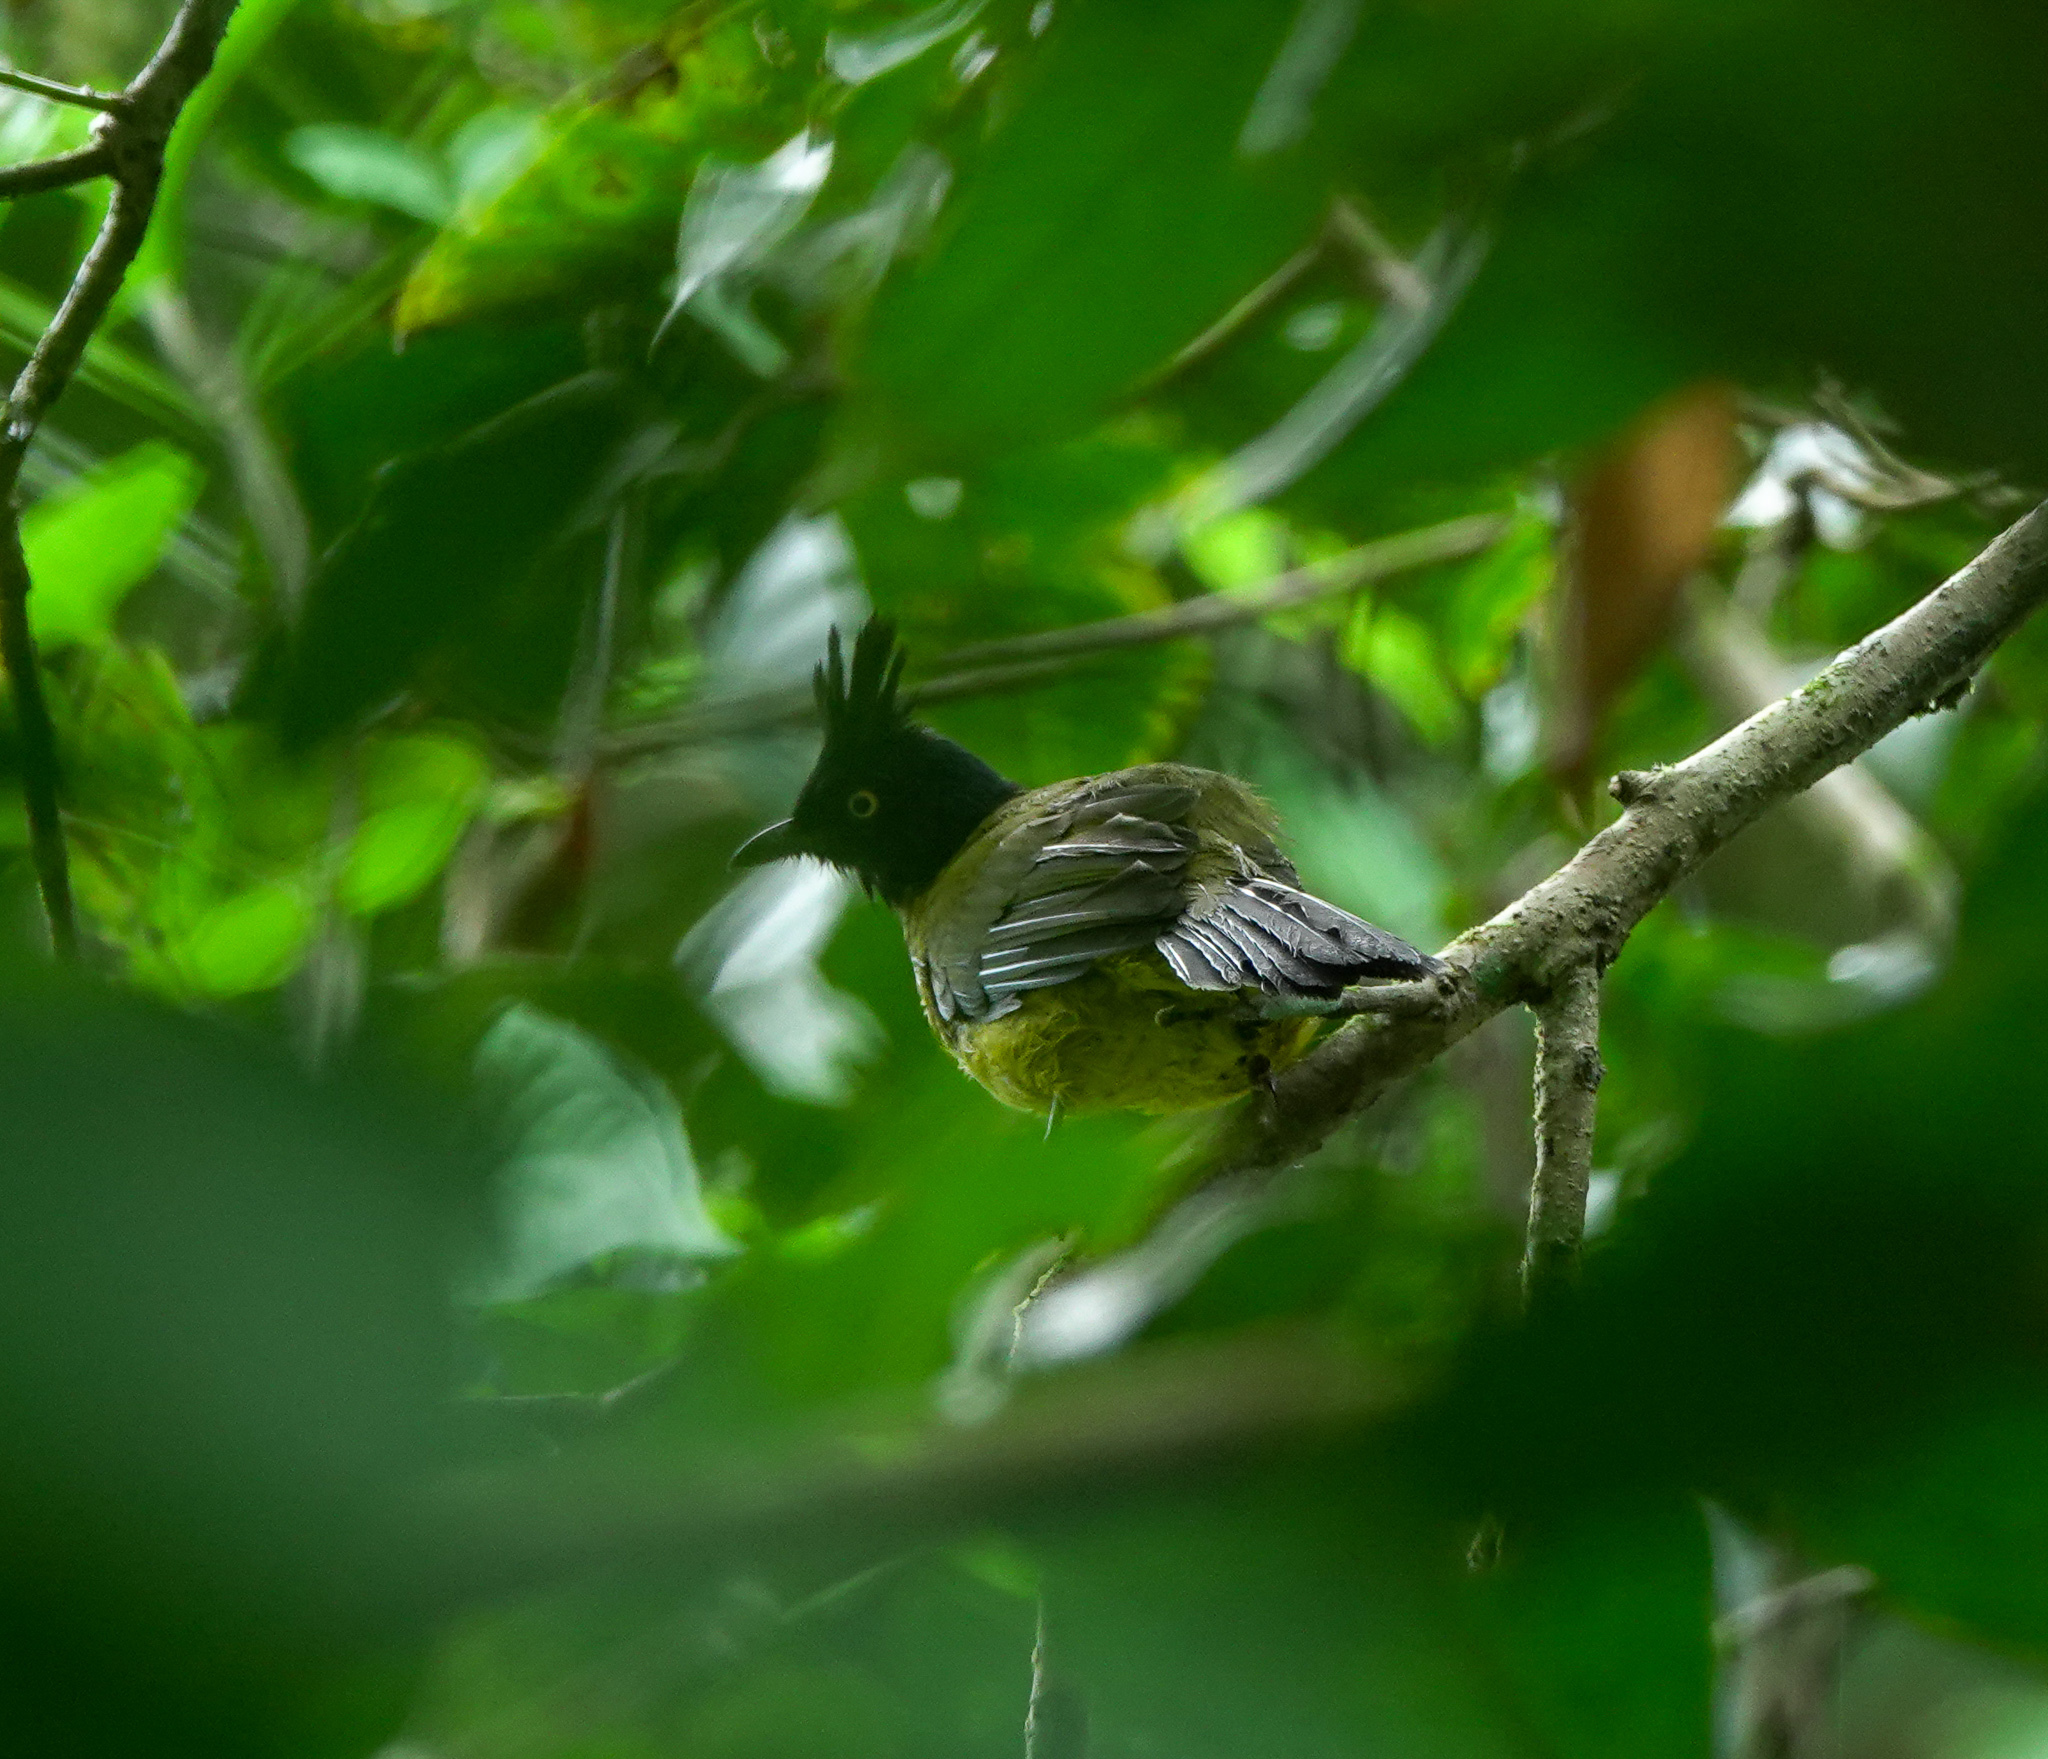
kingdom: Animalia
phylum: Chordata
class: Aves
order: Passeriformes
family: Pycnonotidae
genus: Pycnonotus
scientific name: Pycnonotus flaviventris
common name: Black-crested bulbul
